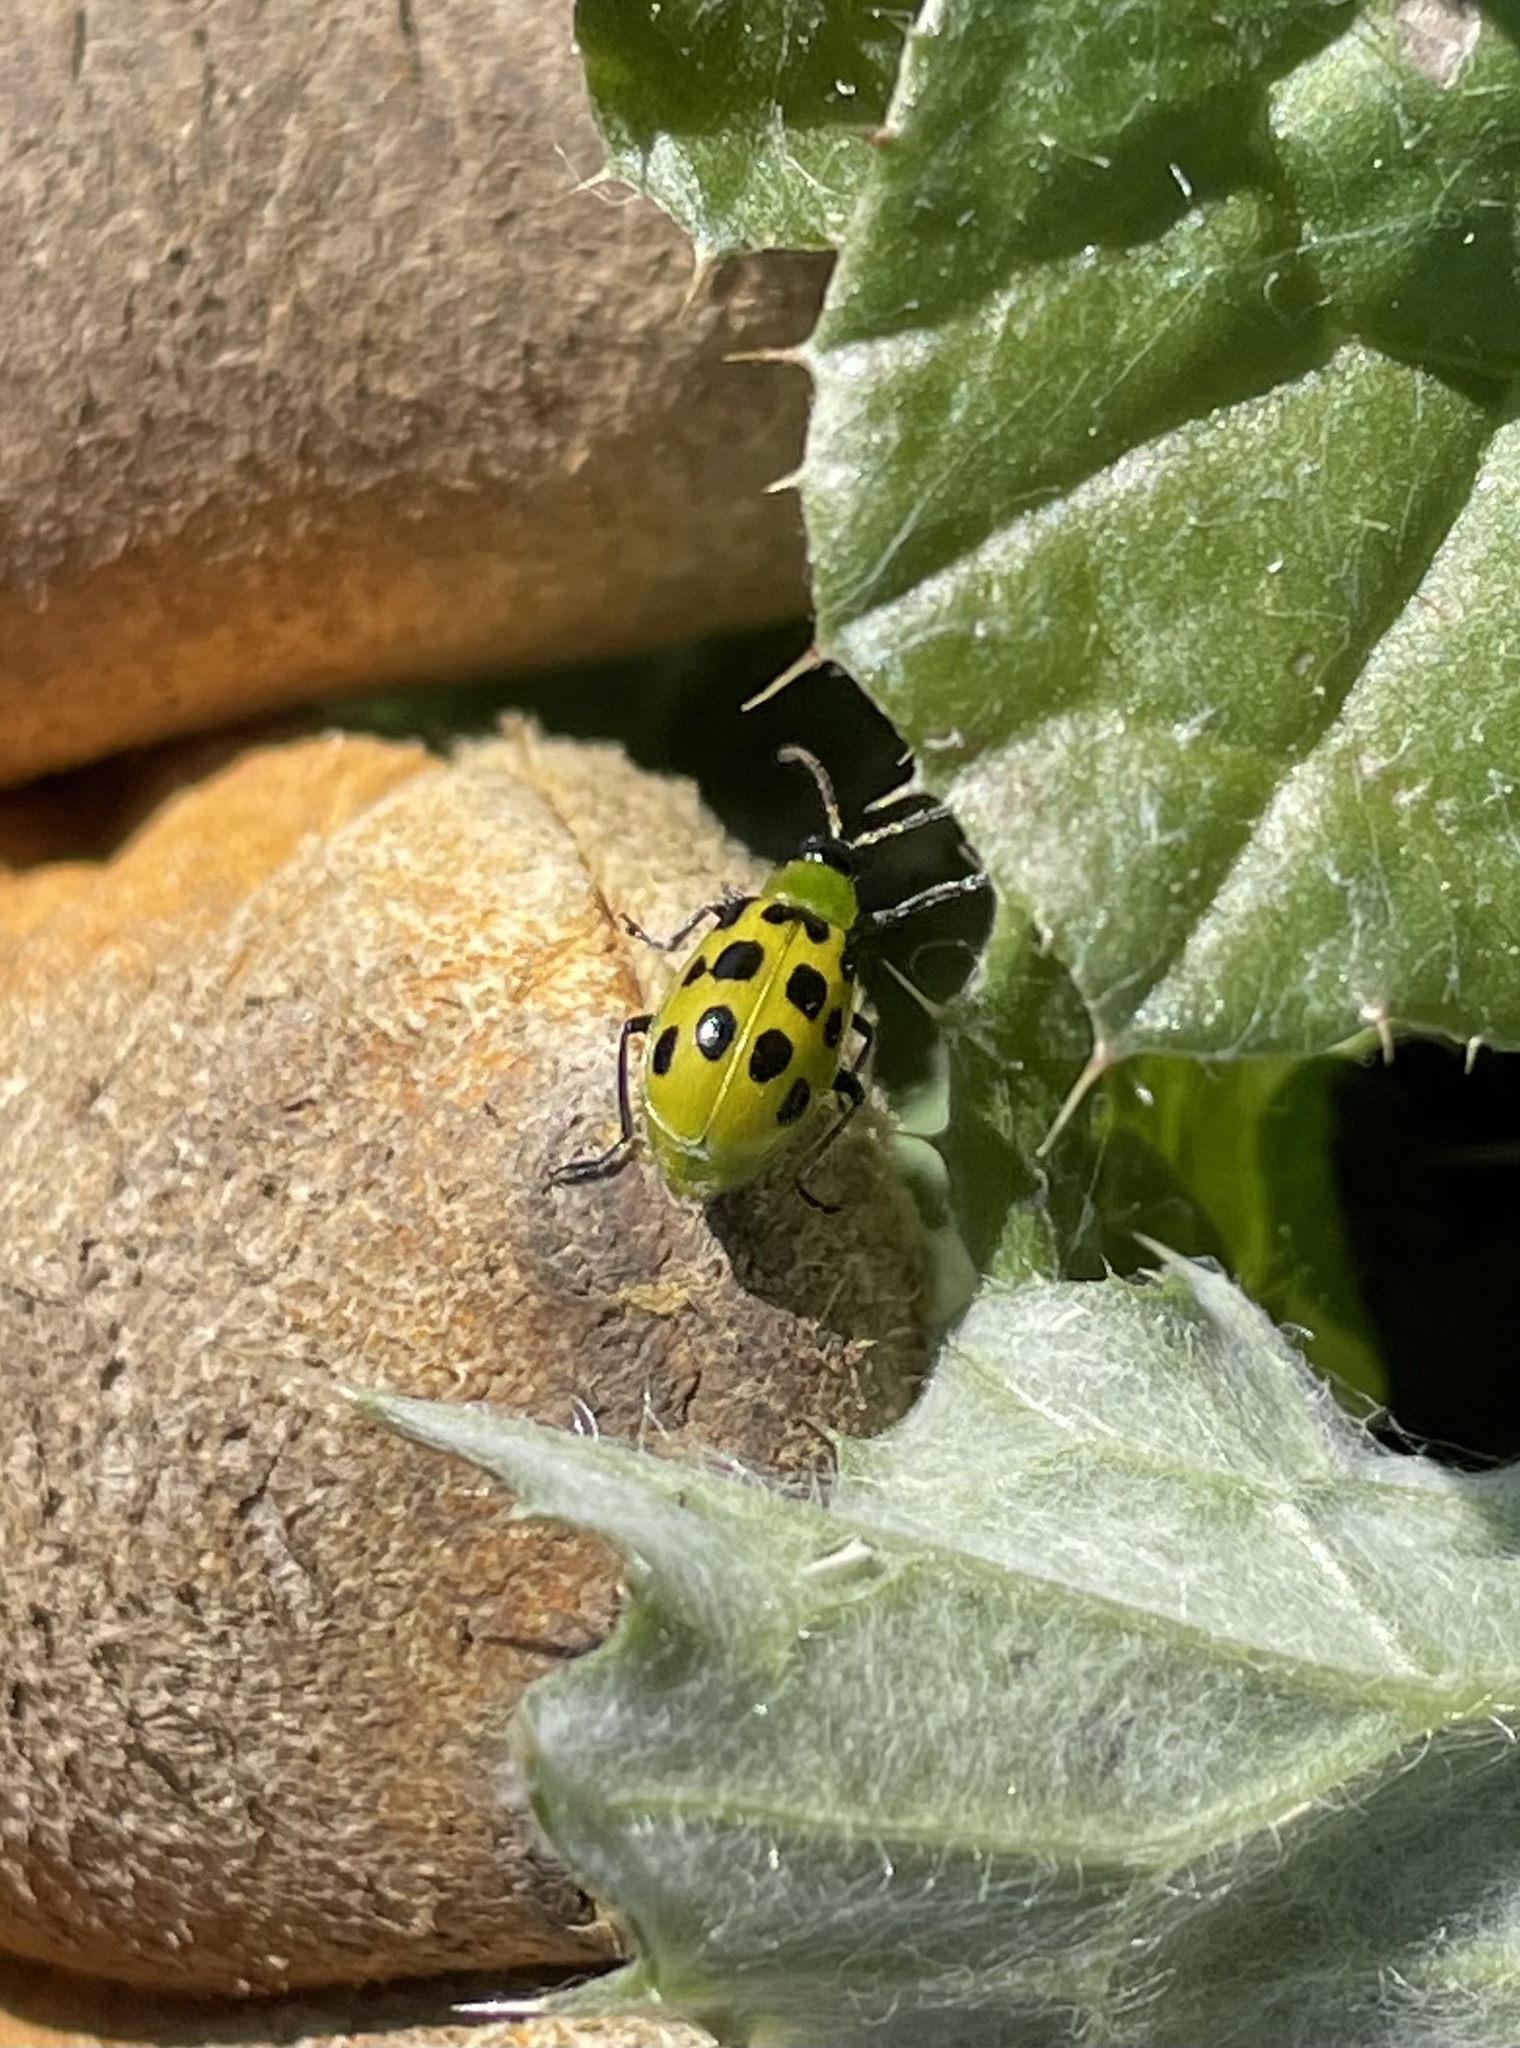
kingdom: Animalia
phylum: Arthropoda
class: Insecta
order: Coleoptera
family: Chrysomelidae
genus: Diabrotica
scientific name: Diabrotica undecimpunctata
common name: Spotted cucumber beetle
